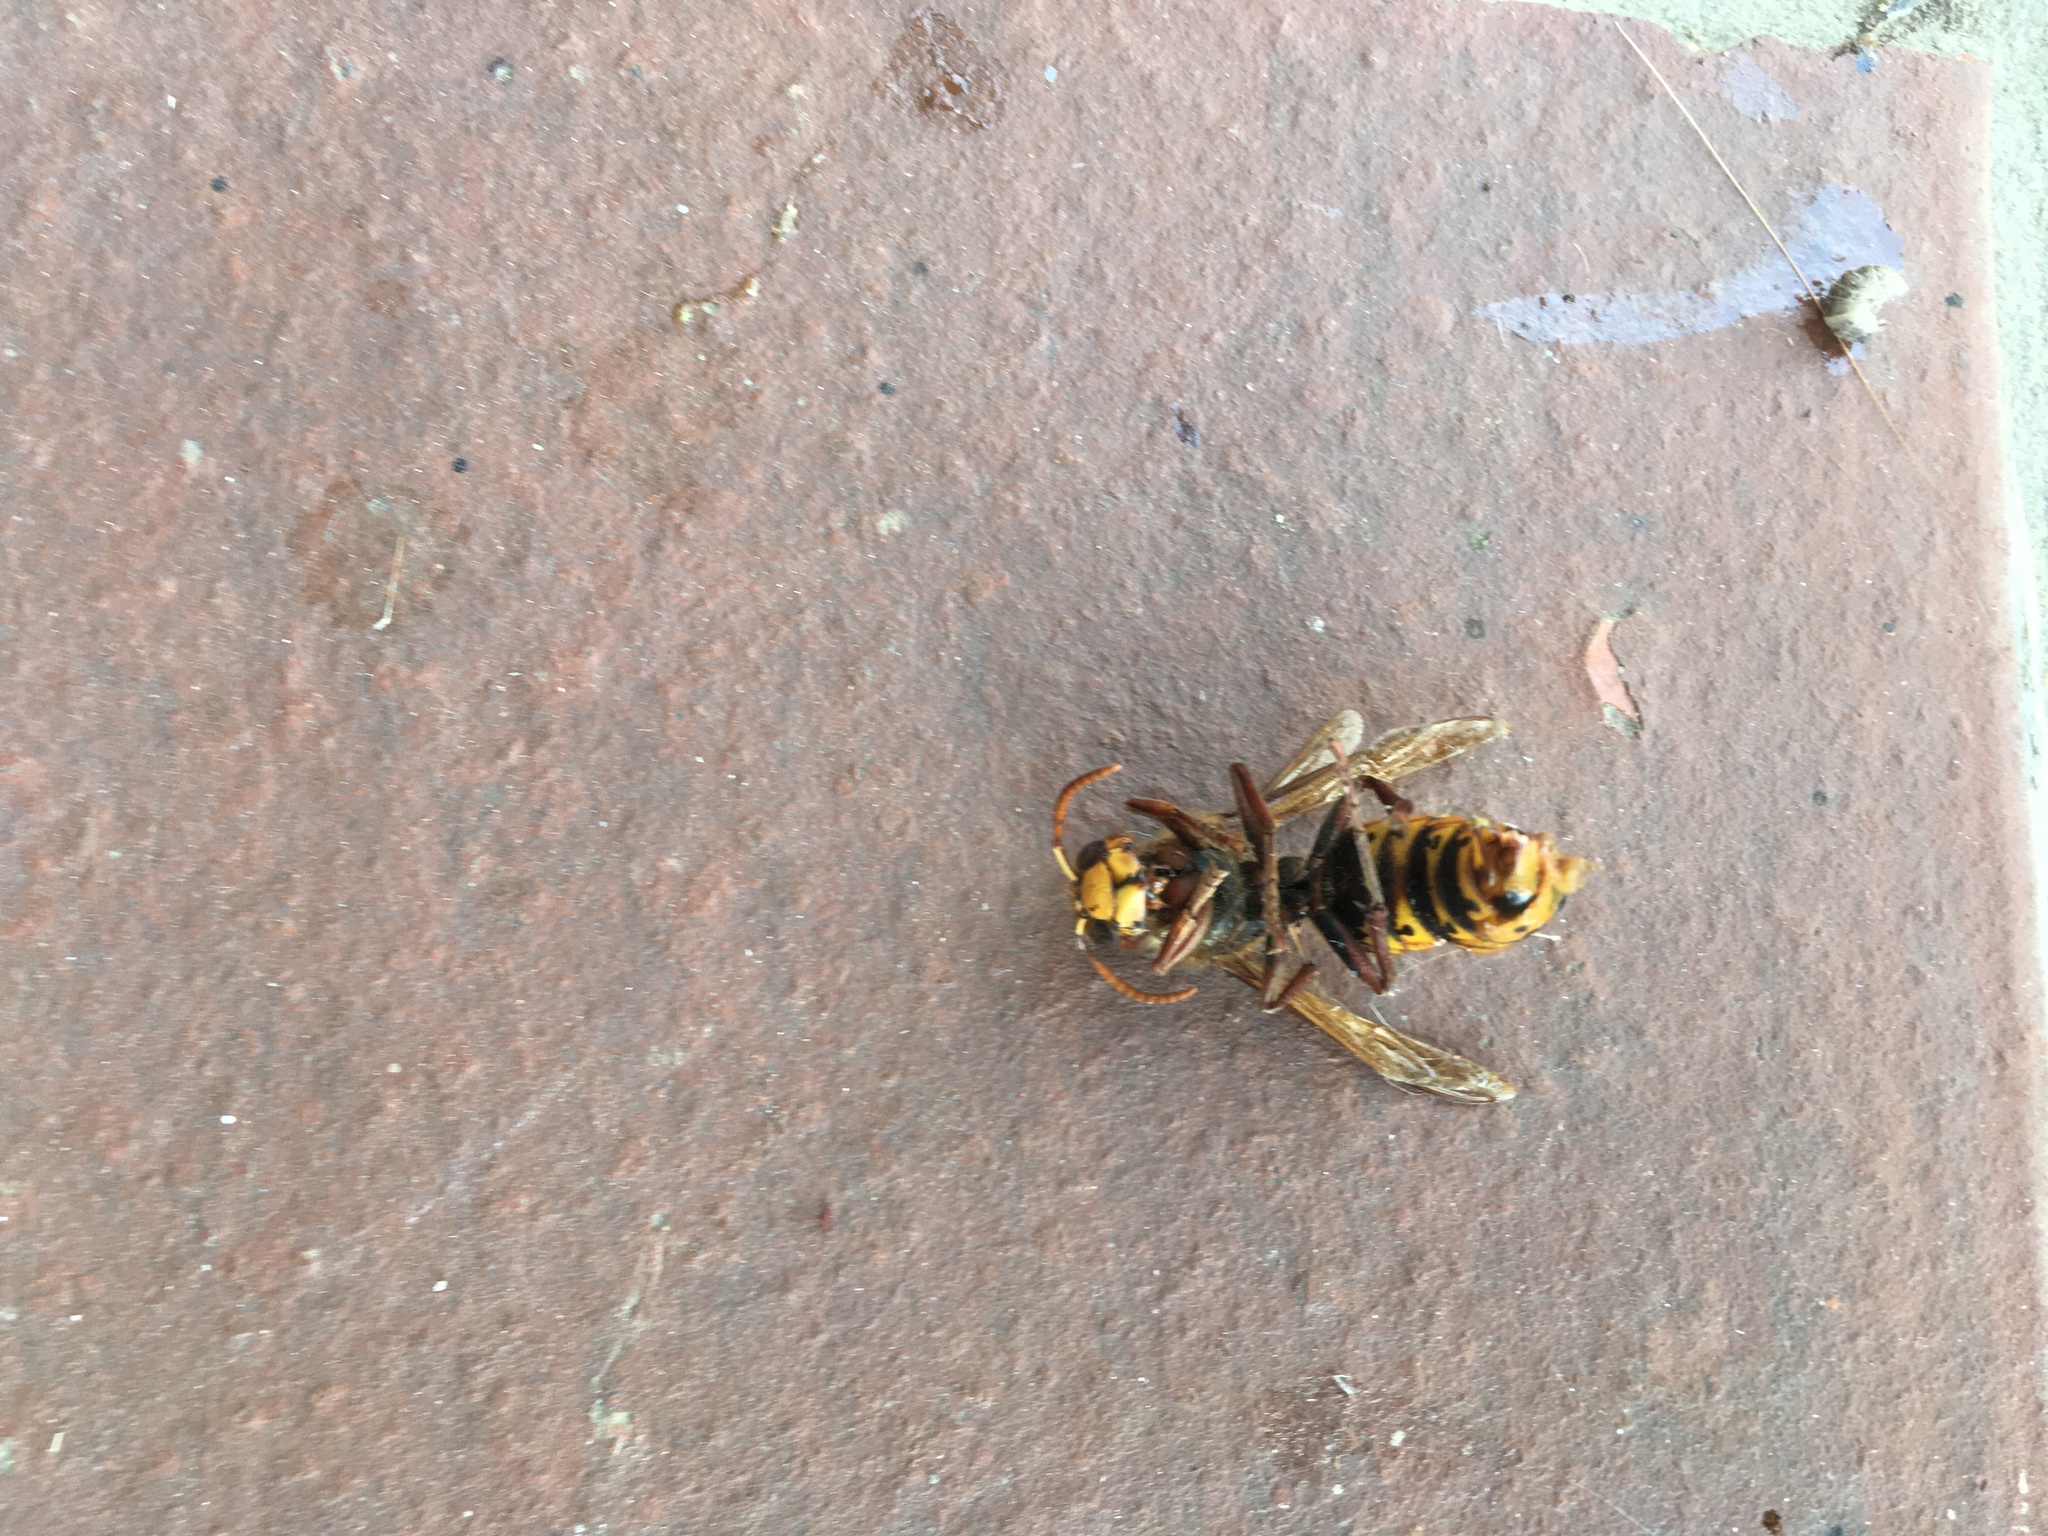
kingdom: Animalia
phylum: Arthropoda
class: Insecta
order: Hymenoptera
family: Vespidae
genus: Vespa
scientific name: Vespa crabro
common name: Hornet
